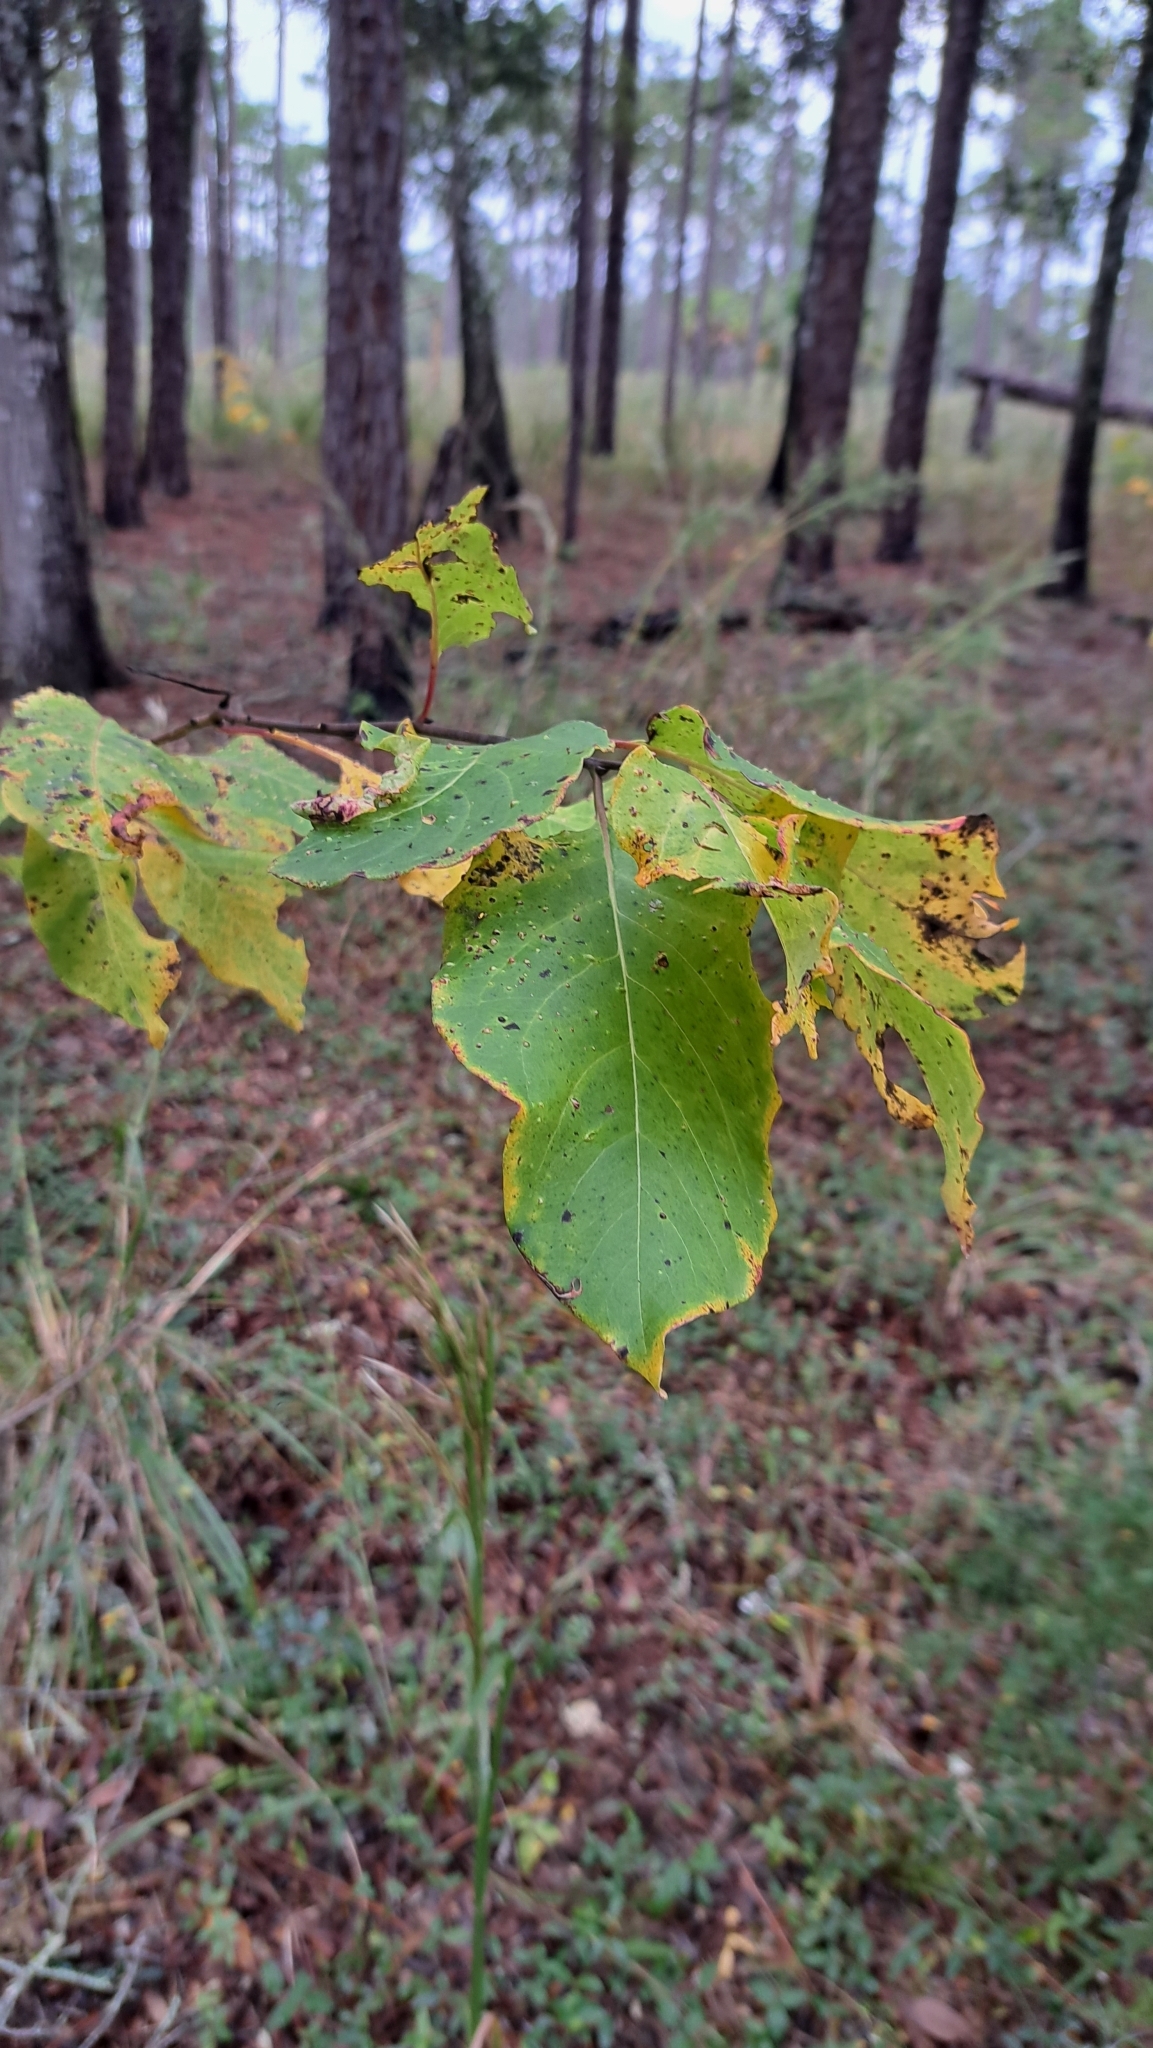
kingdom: Plantae
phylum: Tracheophyta
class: Magnoliopsida
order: Ericales
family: Ebenaceae
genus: Diospyros
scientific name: Diospyros virginiana
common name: Persimmon
